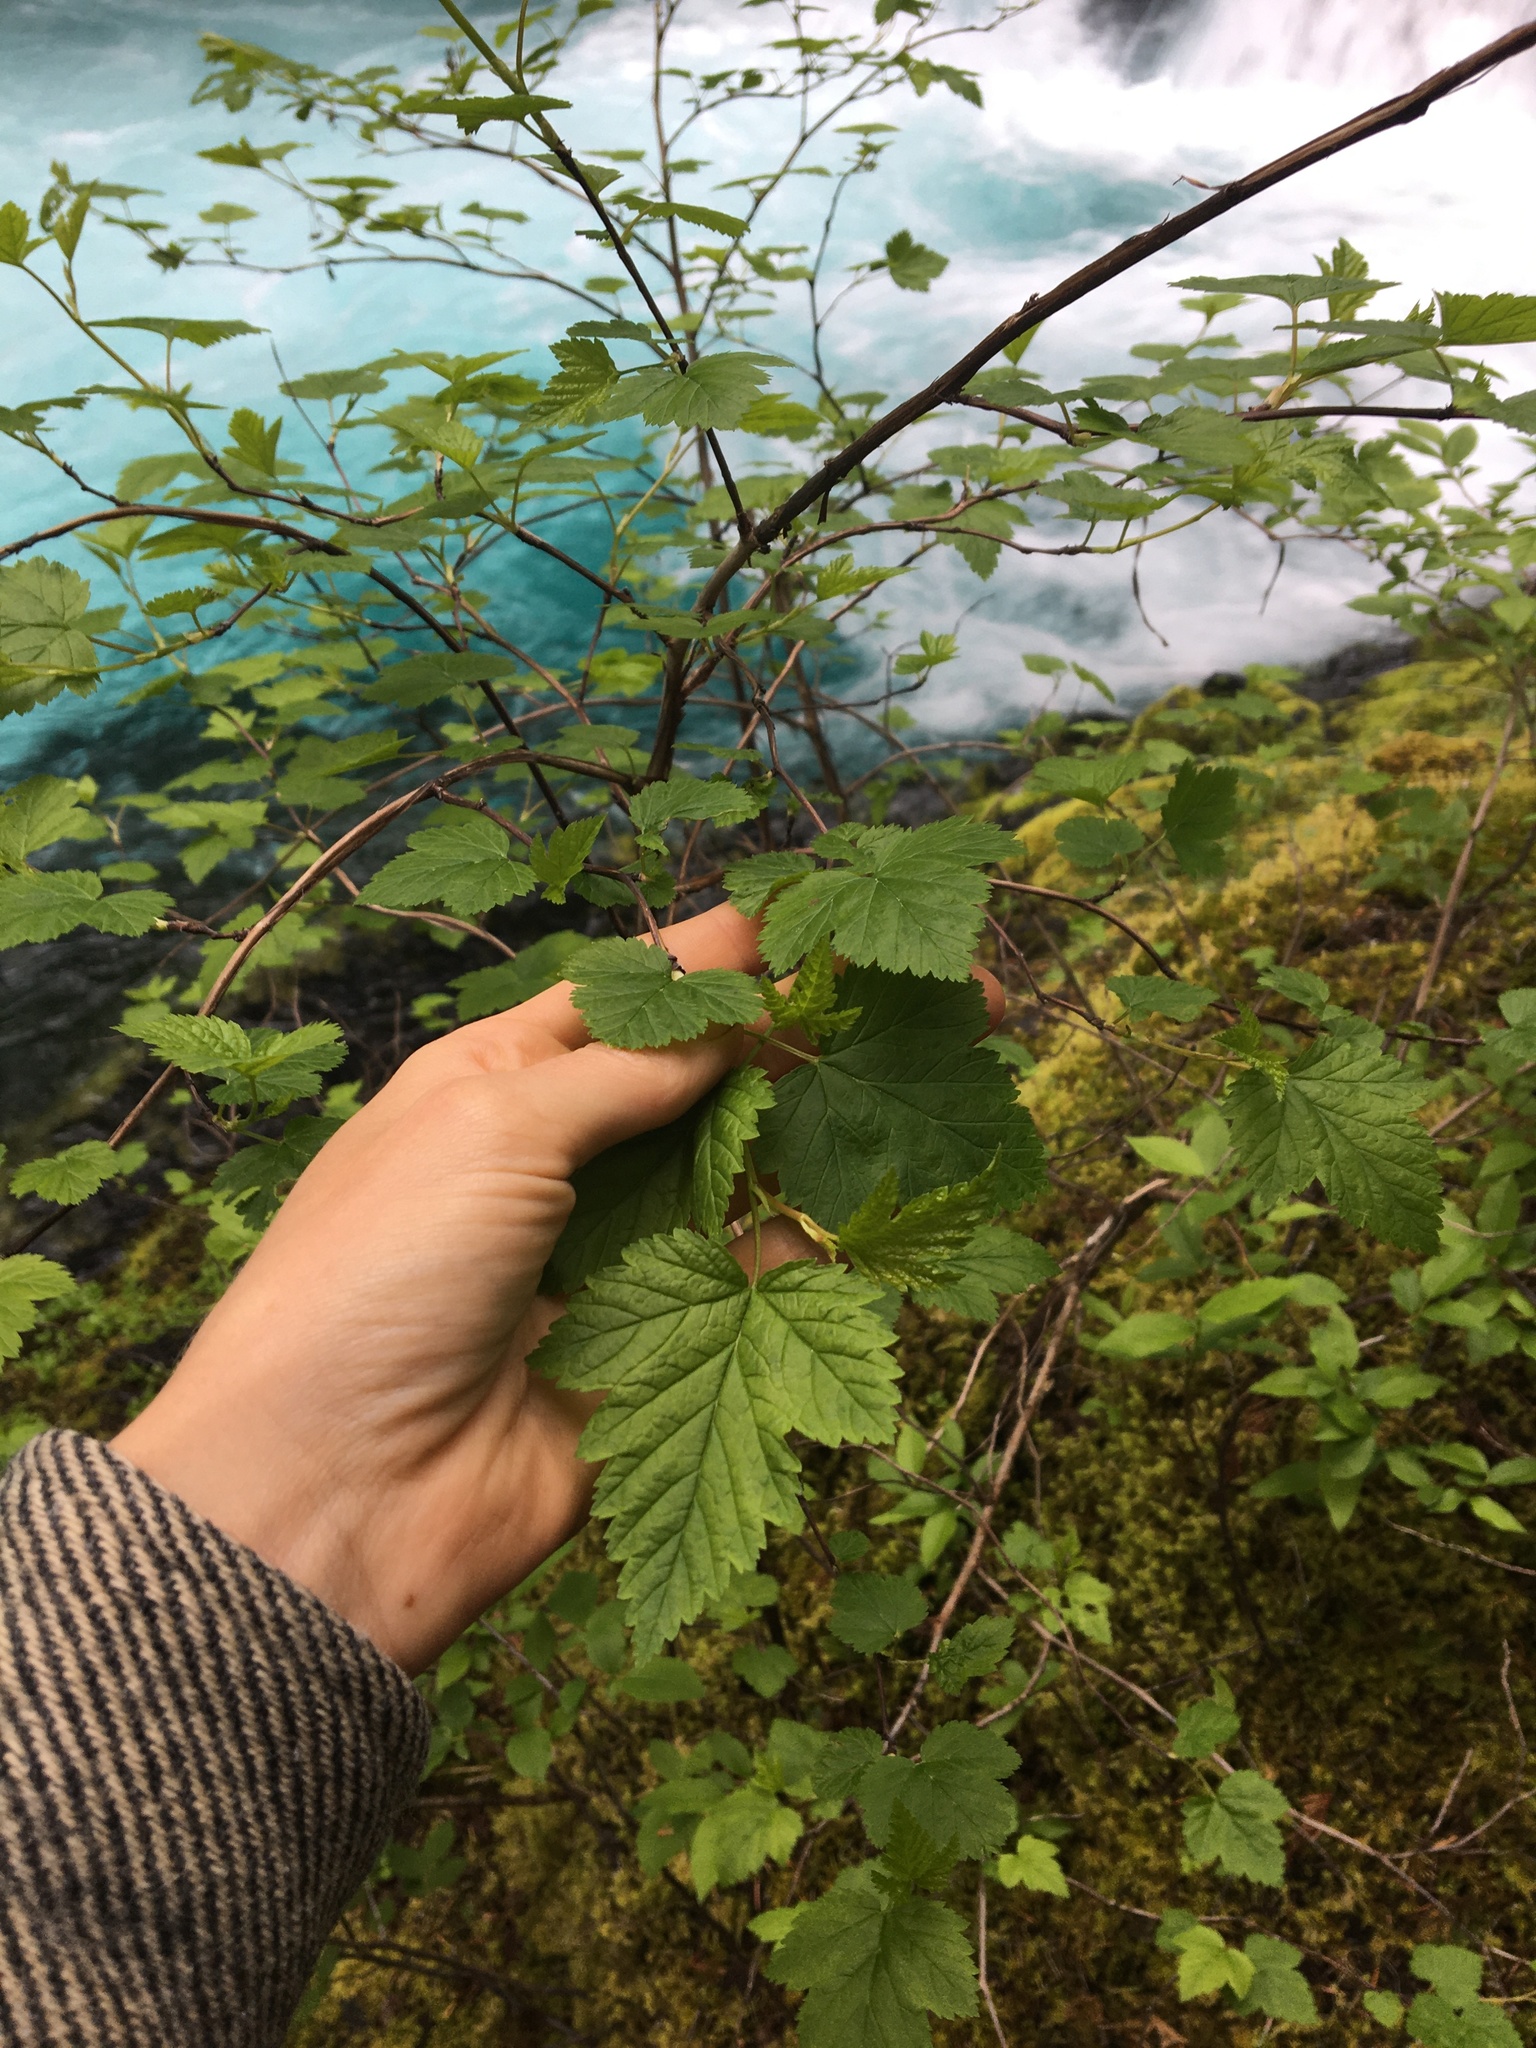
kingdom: Plantae
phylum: Tracheophyta
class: Magnoliopsida
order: Rosales
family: Rosaceae
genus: Rubus
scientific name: Rubus spectabilis
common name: Salmonberry
